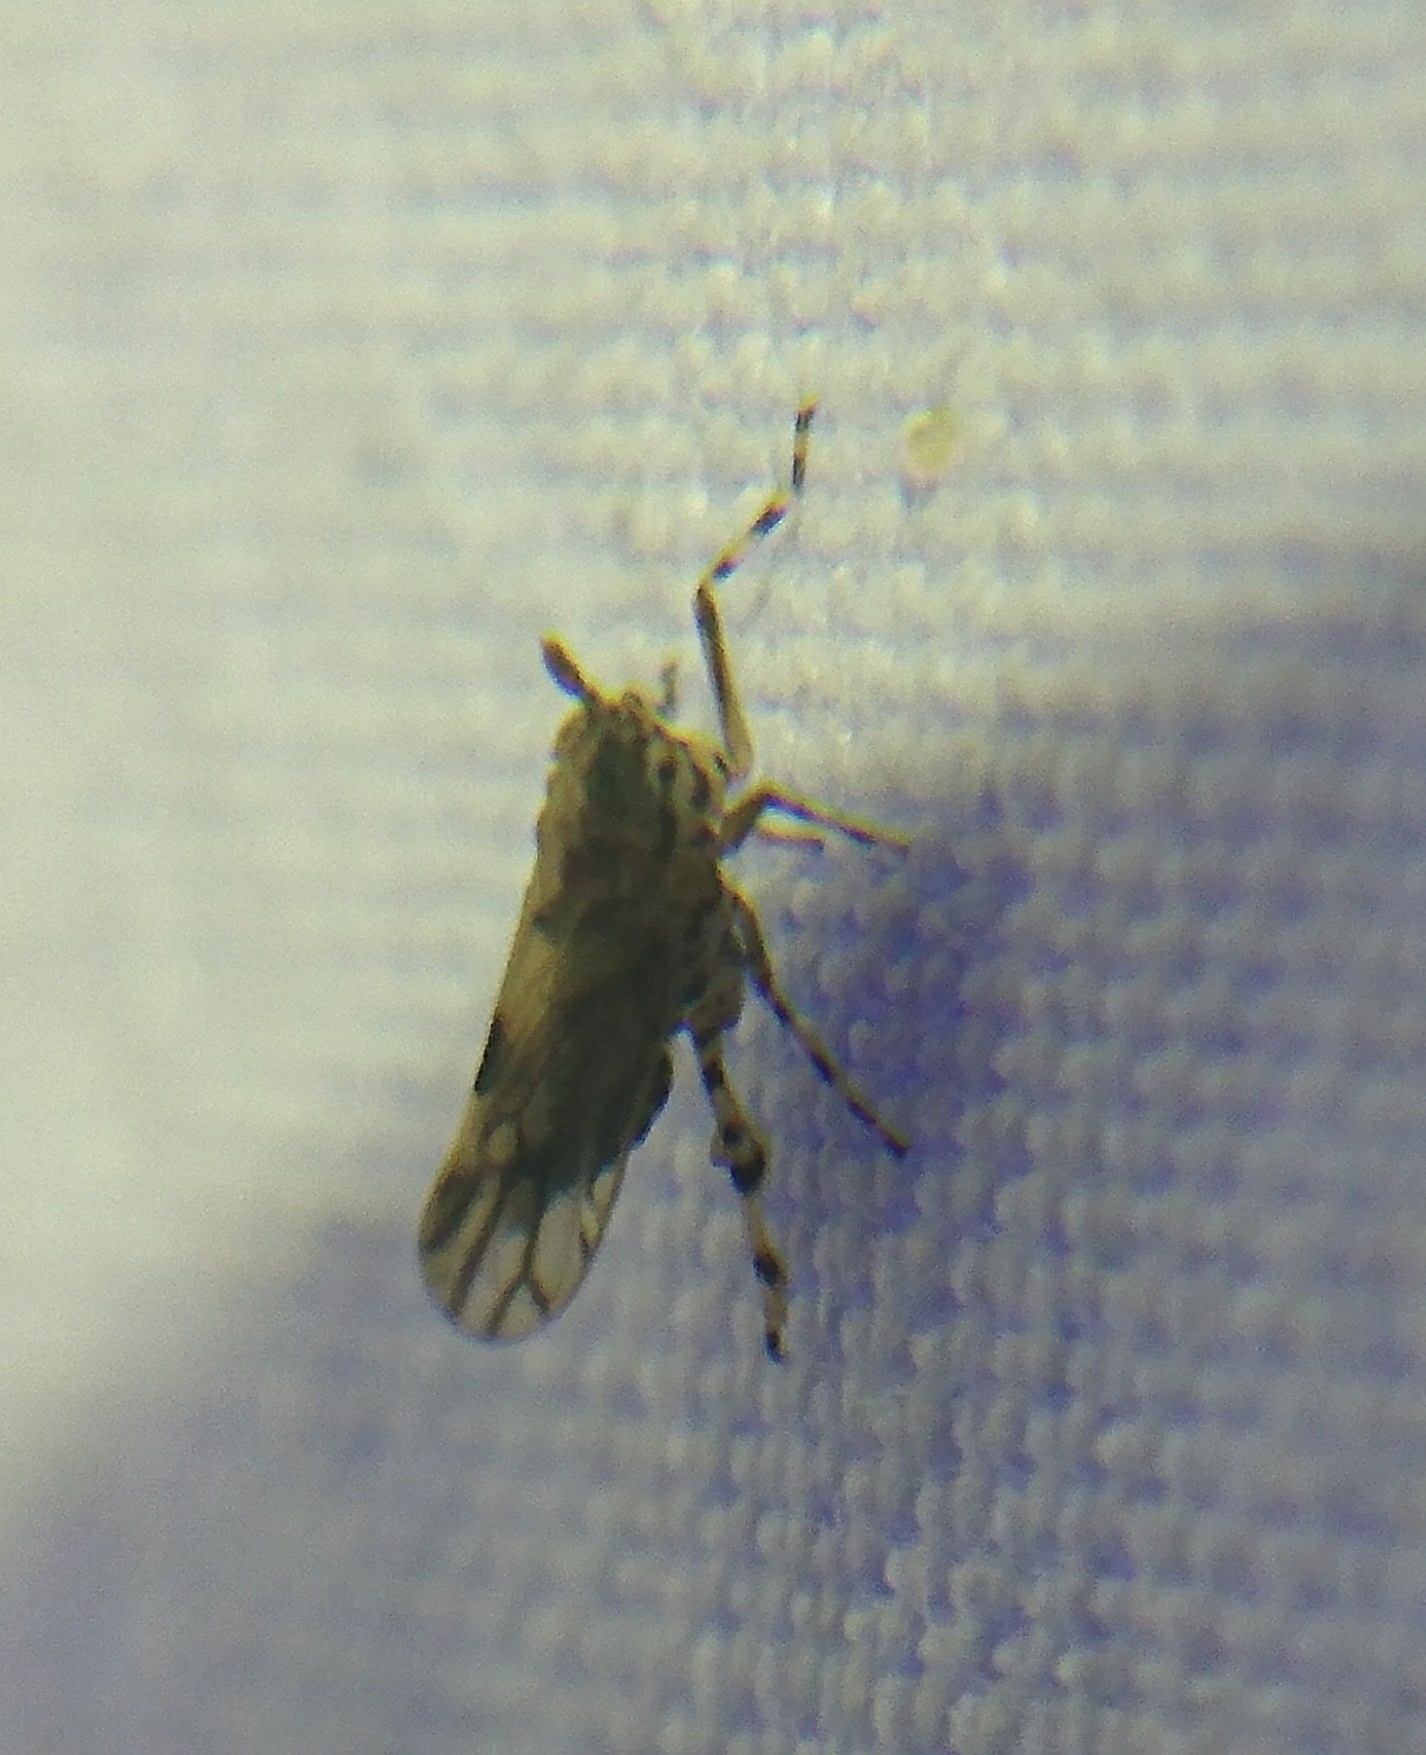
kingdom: Animalia
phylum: Arthropoda
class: Insecta
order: Hemiptera
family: Delphacidae
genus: Megamelus
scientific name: Megamelus palaetus
